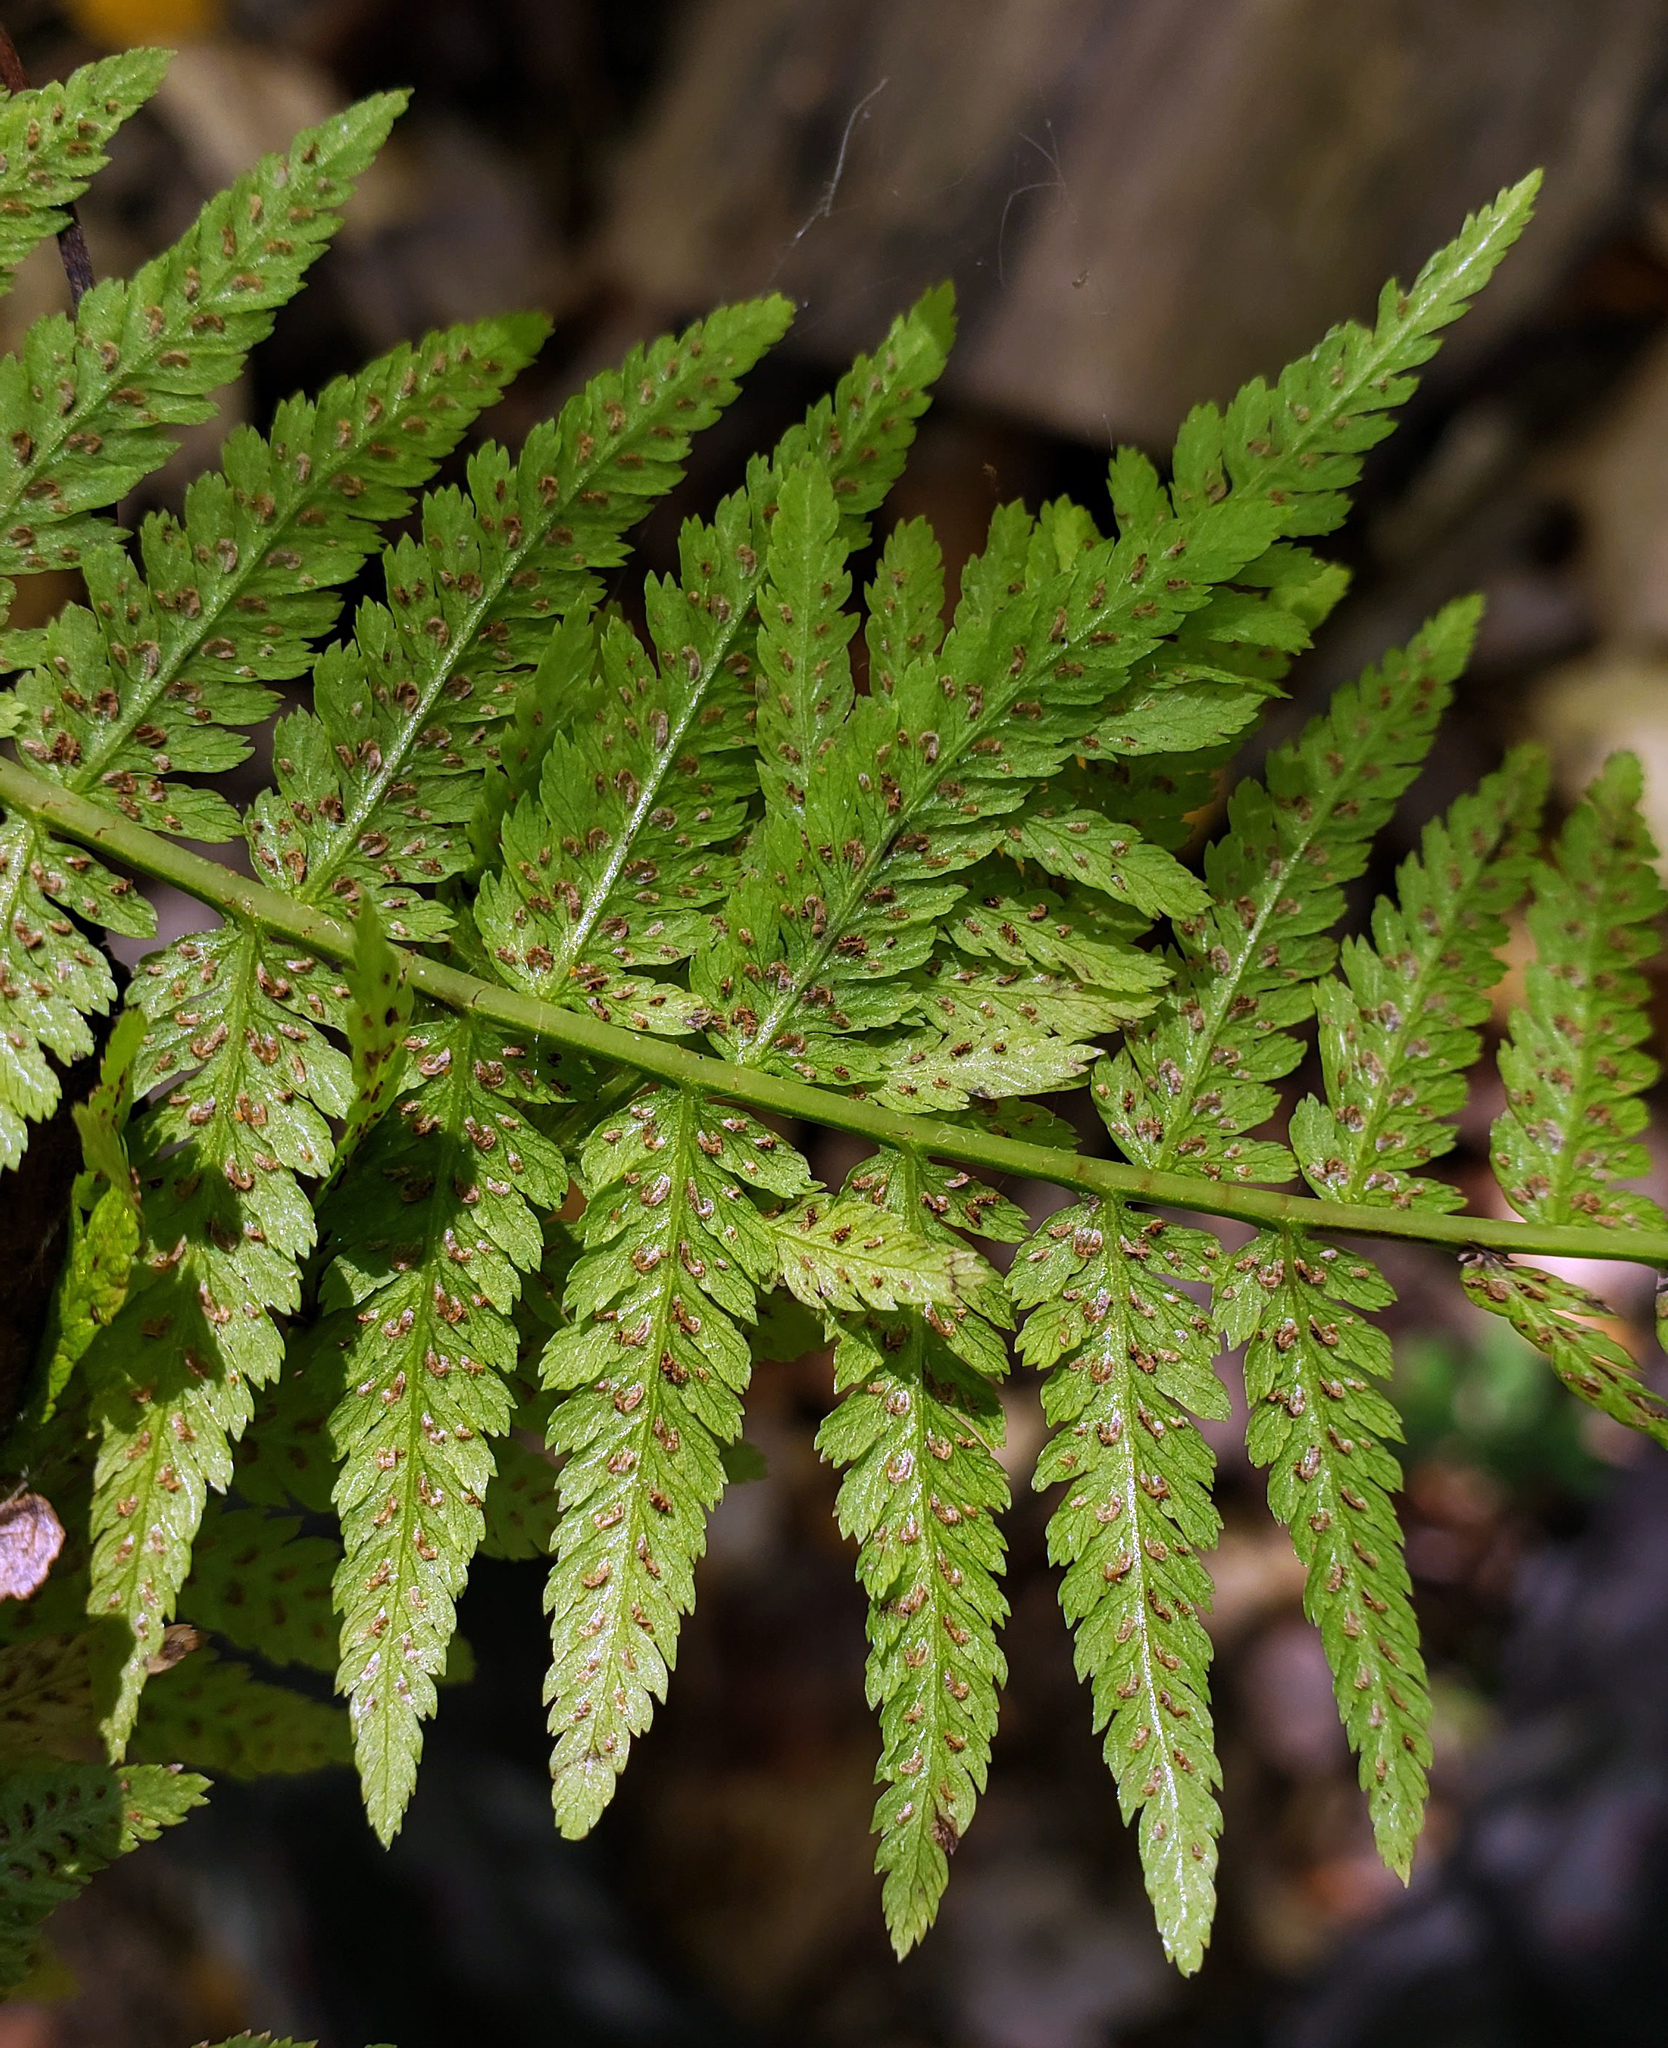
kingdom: Plantae
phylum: Tracheophyta
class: Polypodiopsida
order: Polypodiales
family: Athyriaceae
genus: Athyrium
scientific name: Athyrium angustum
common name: Northern lady fern
